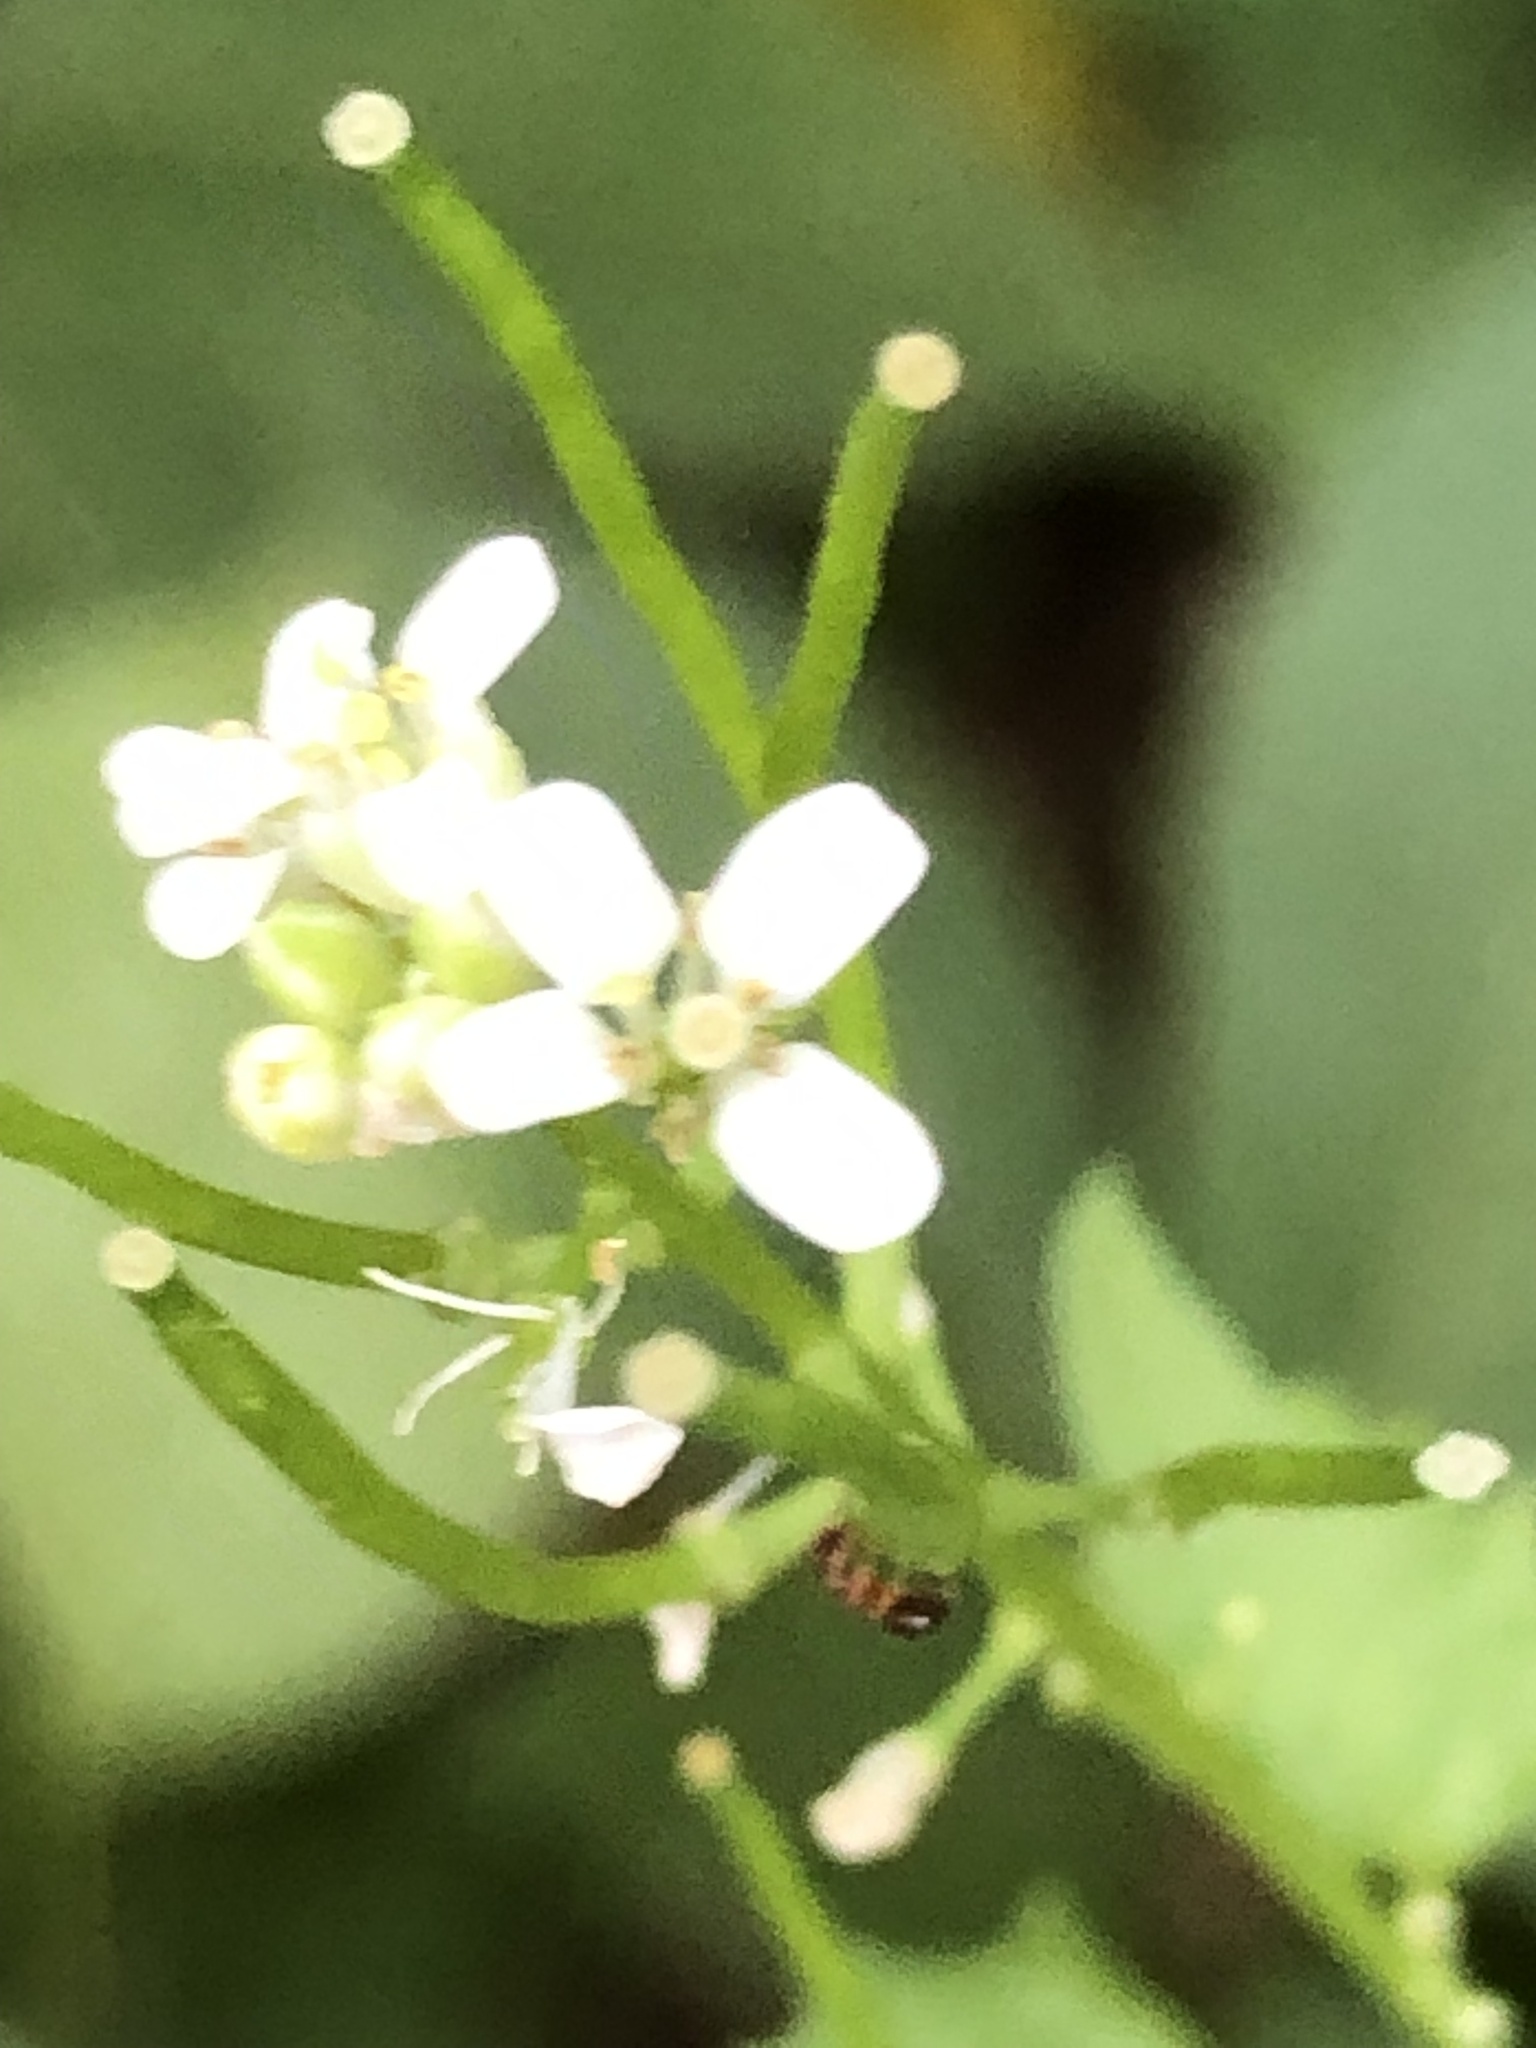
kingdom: Plantae
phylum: Tracheophyta
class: Magnoliopsida
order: Brassicales
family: Brassicaceae
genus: Alliaria
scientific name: Alliaria petiolata
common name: Garlic mustard
